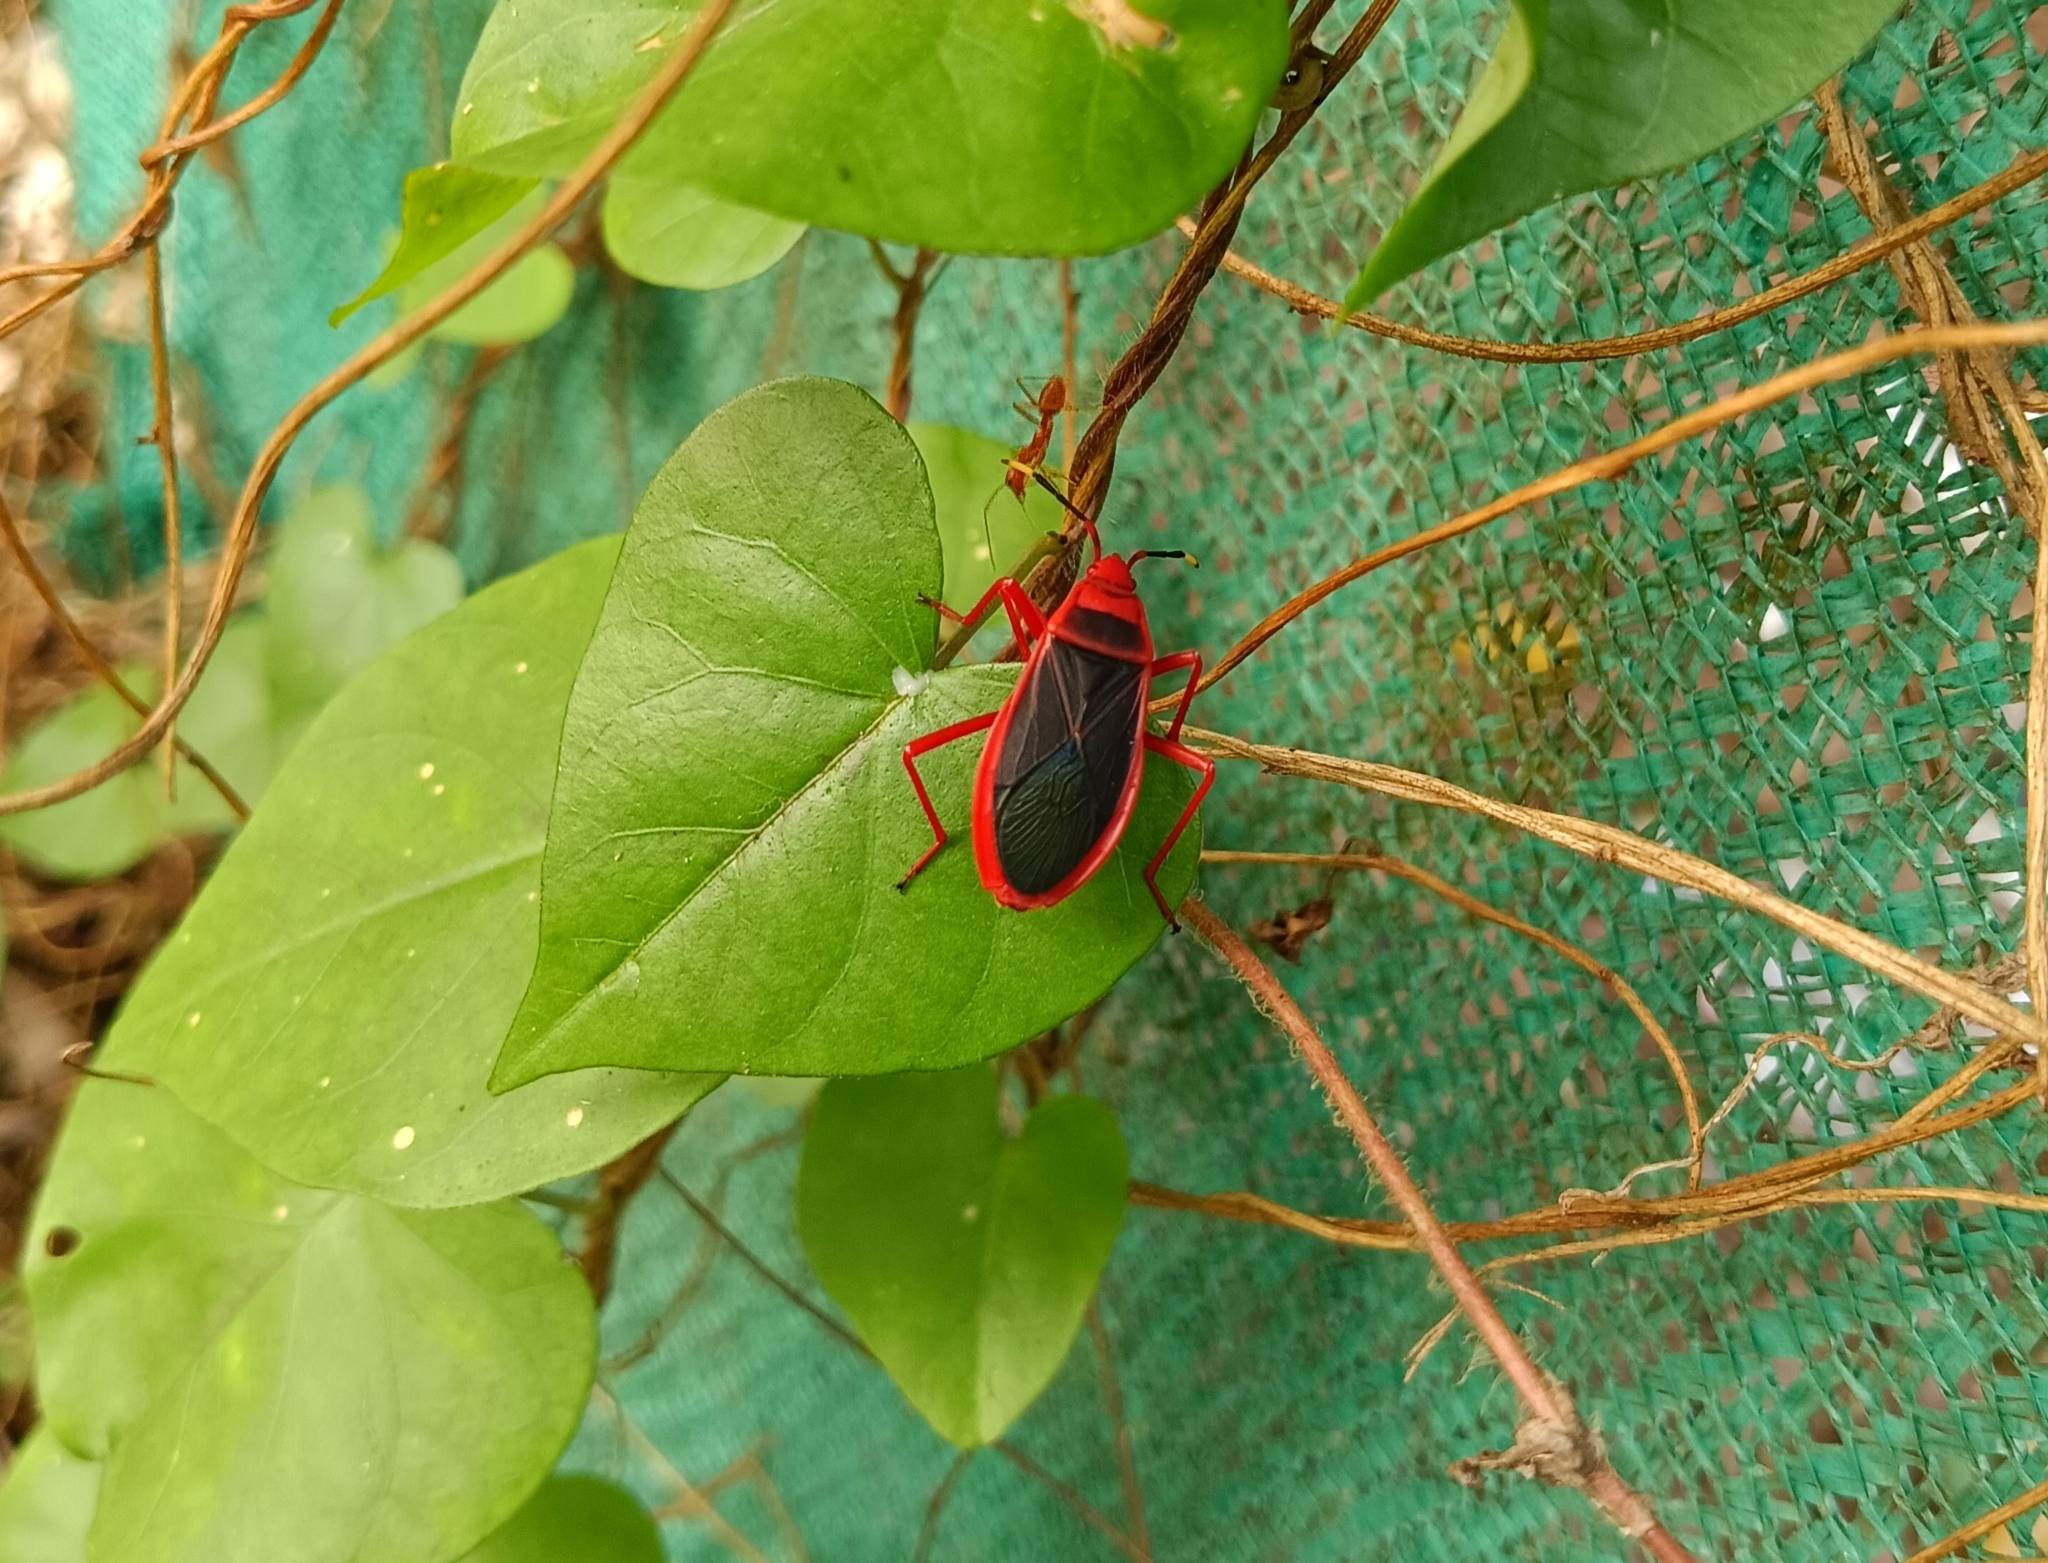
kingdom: Animalia
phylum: Arthropoda
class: Insecta
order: Hemiptera
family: Pyrrhocoridae
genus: Probergrothius
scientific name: Probergrothius
